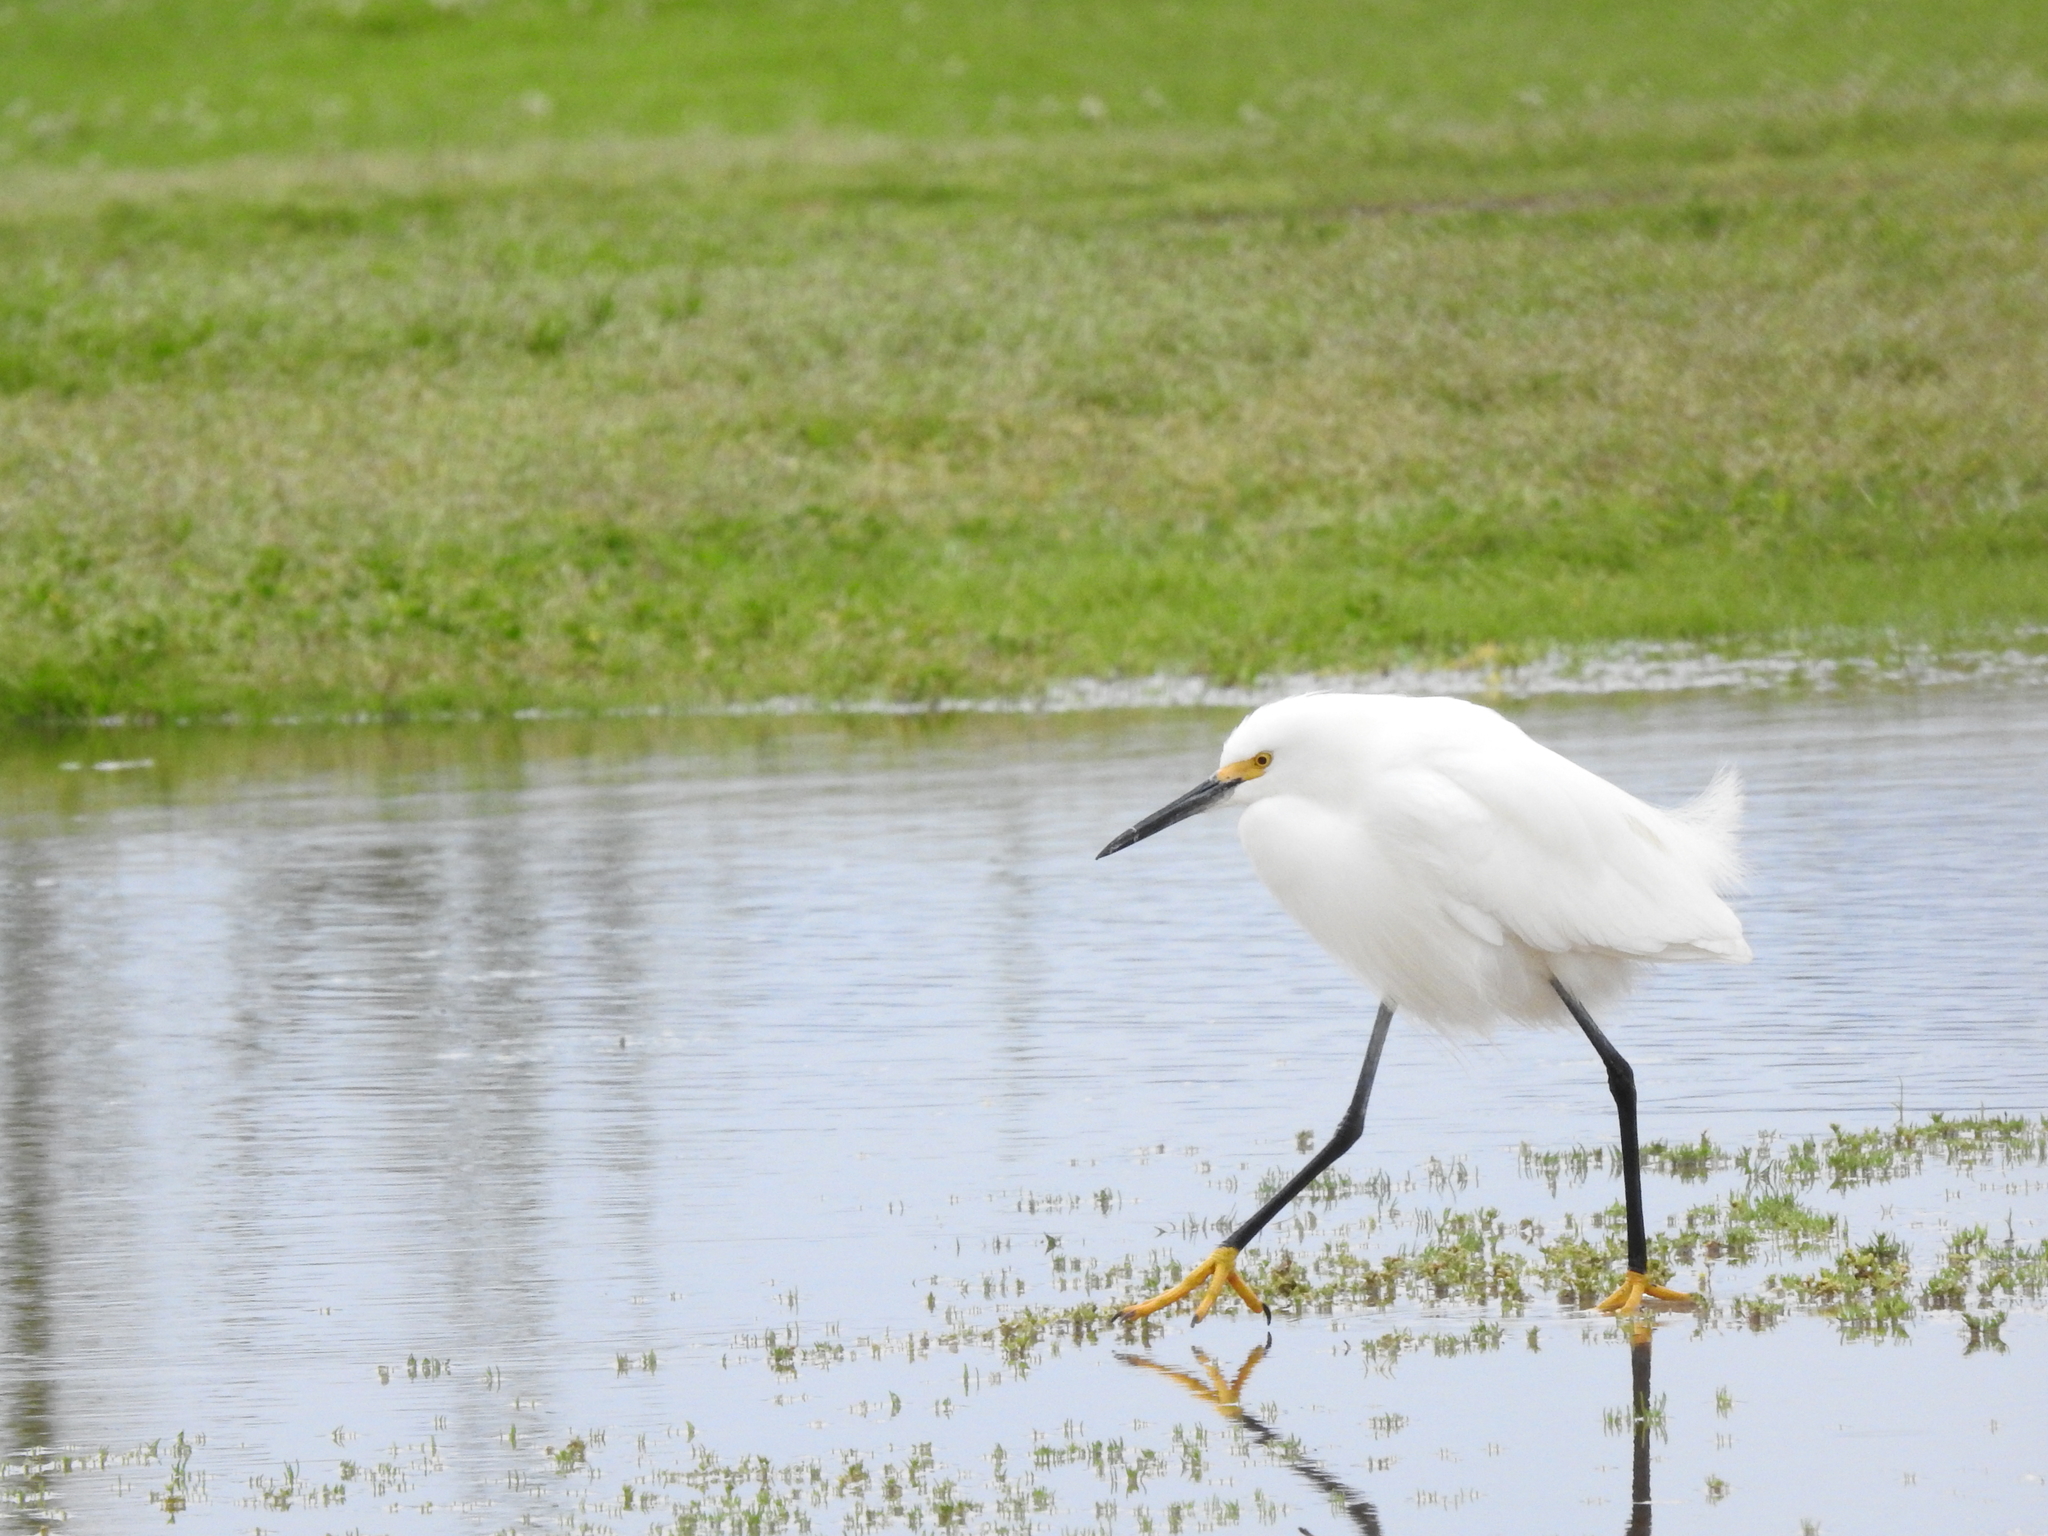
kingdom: Animalia
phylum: Chordata
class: Aves
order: Pelecaniformes
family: Ardeidae
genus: Egretta
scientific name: Egretta thula
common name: Snowy egret
